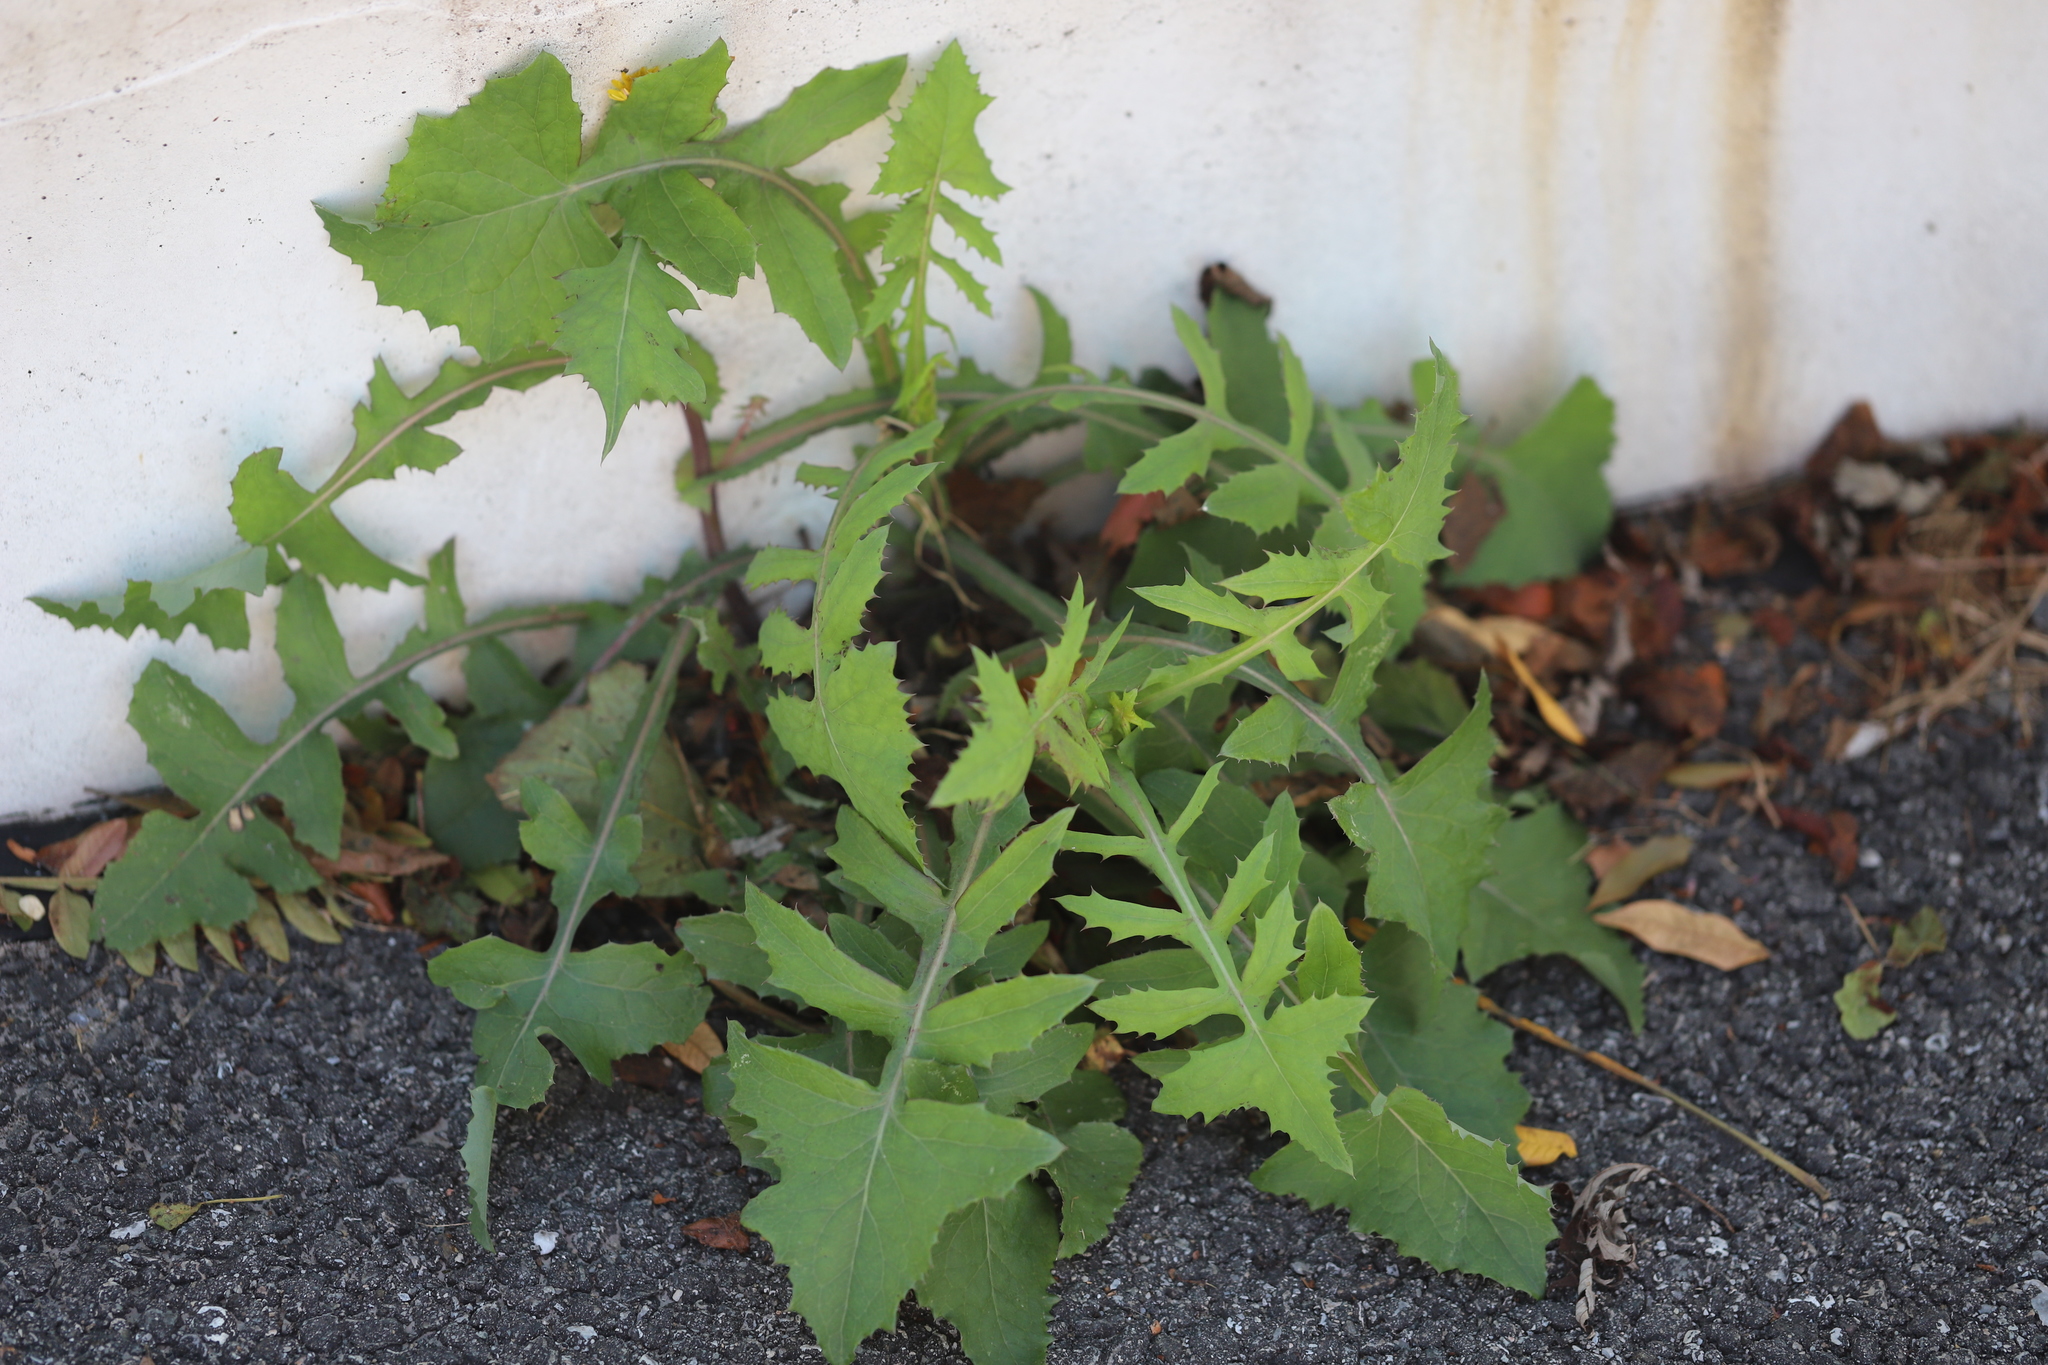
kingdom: Plantae
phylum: Tracheophyta
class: Magnoliopsida
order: Asterales
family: Asteraceae
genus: Sonchus
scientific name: Sonchus oleraceus
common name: Common sowthistle
